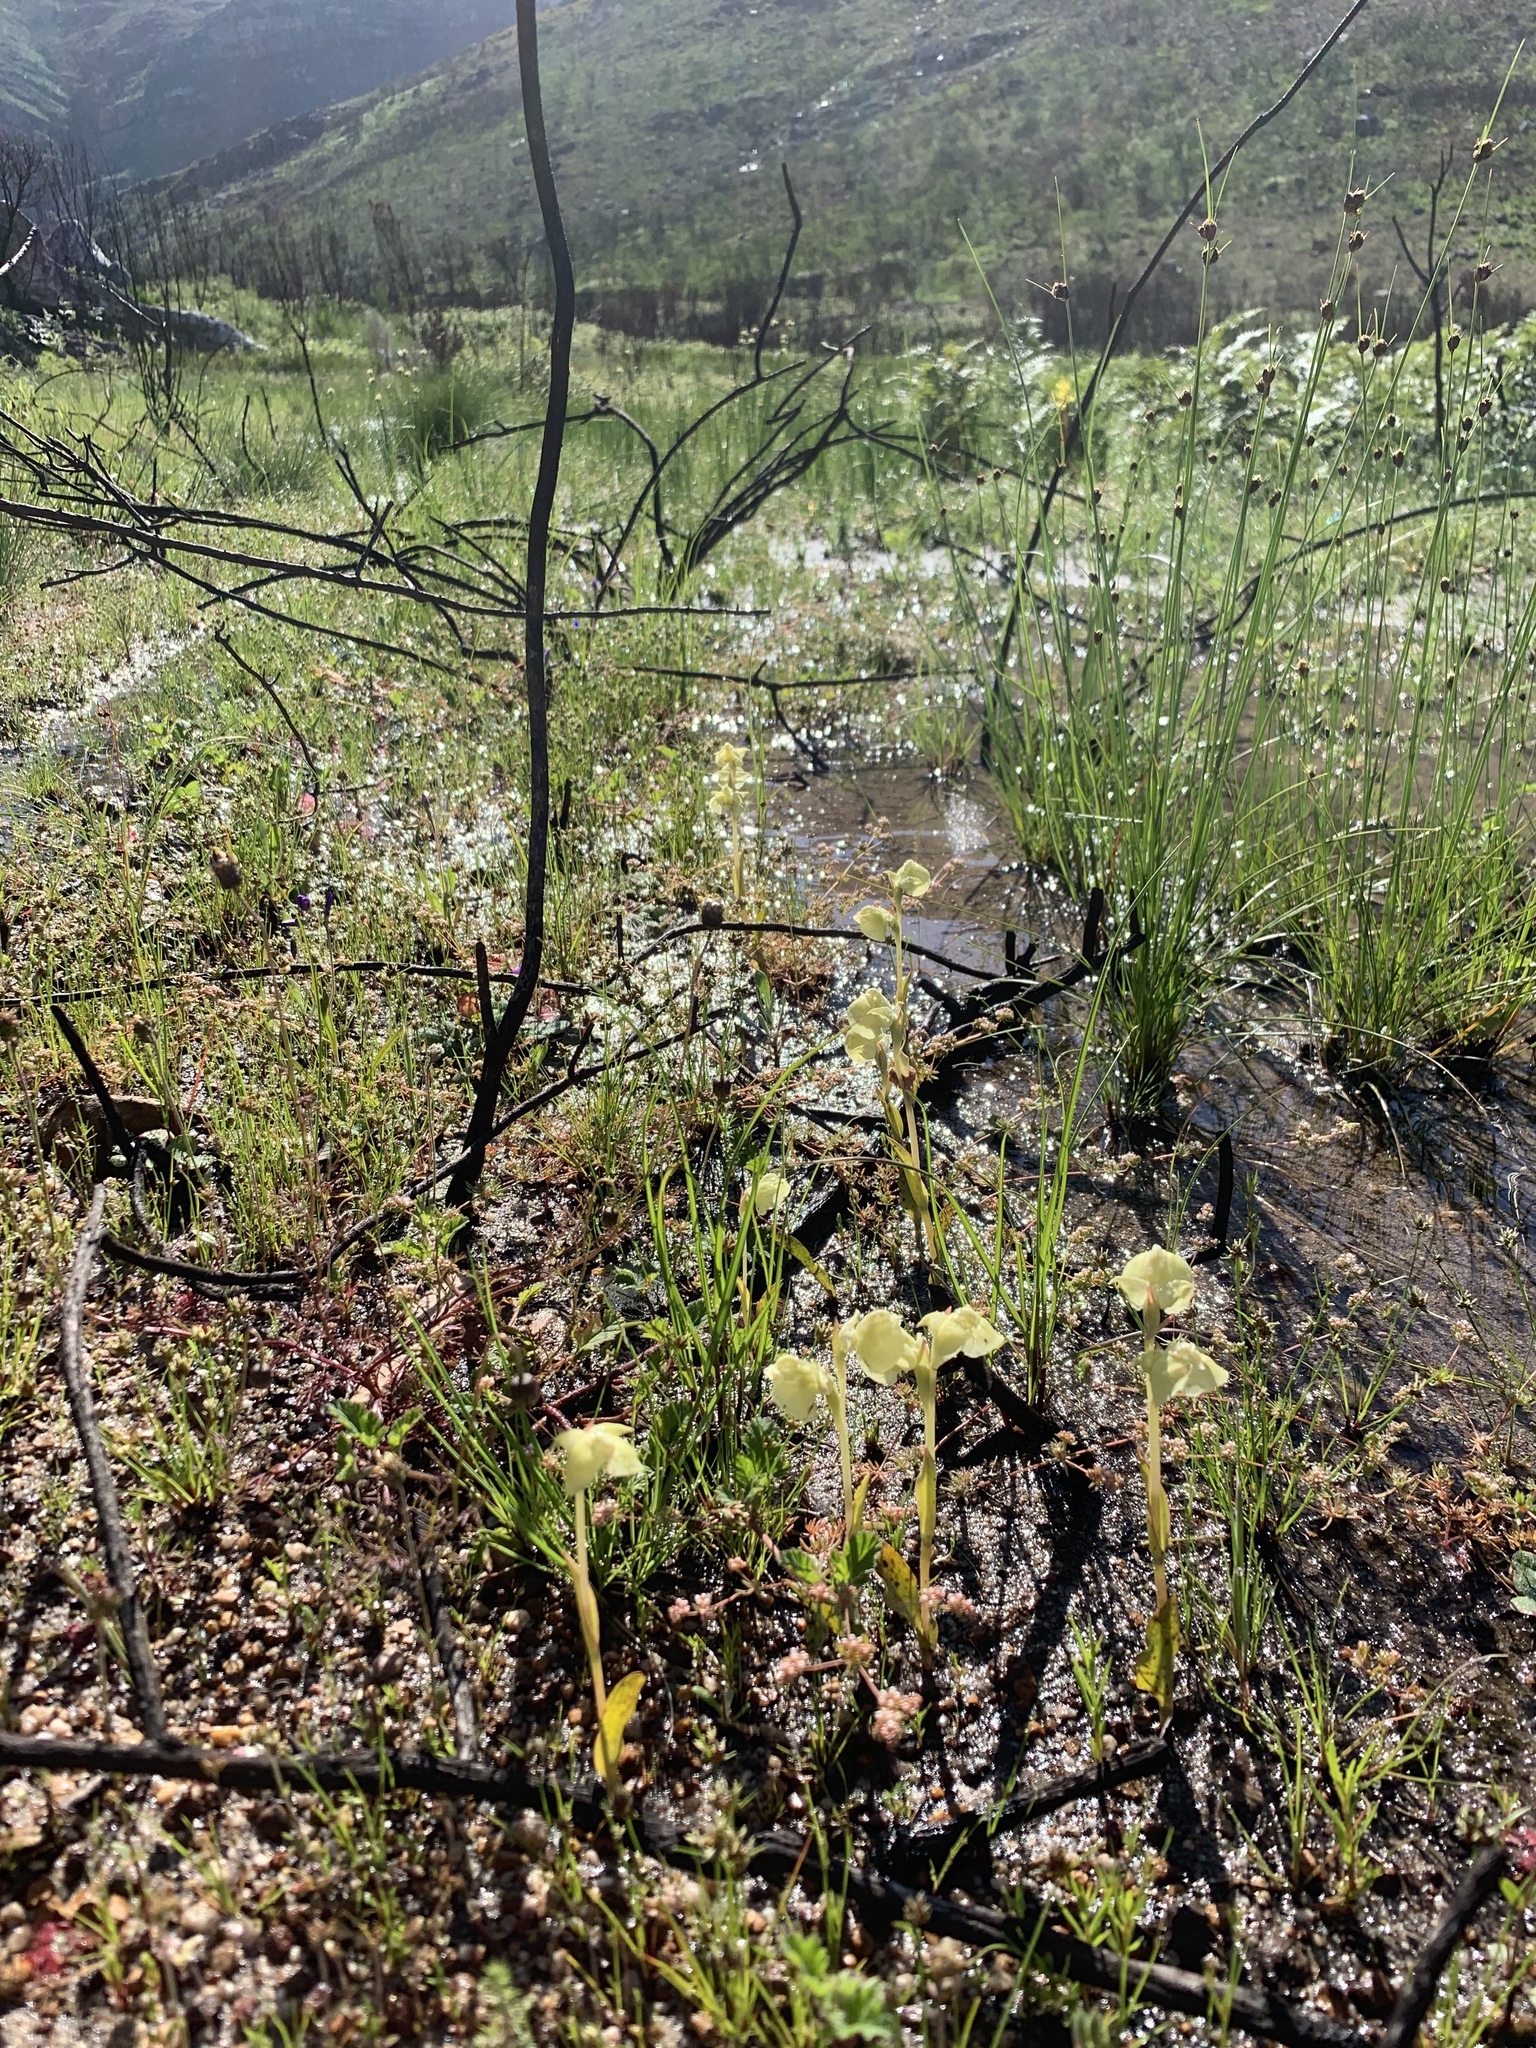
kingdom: Plantae
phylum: Tracheophyta
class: Liliopsida
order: Asparagales
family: Orchidaceae
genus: Pterygodium
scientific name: Pterygodium catholicum
